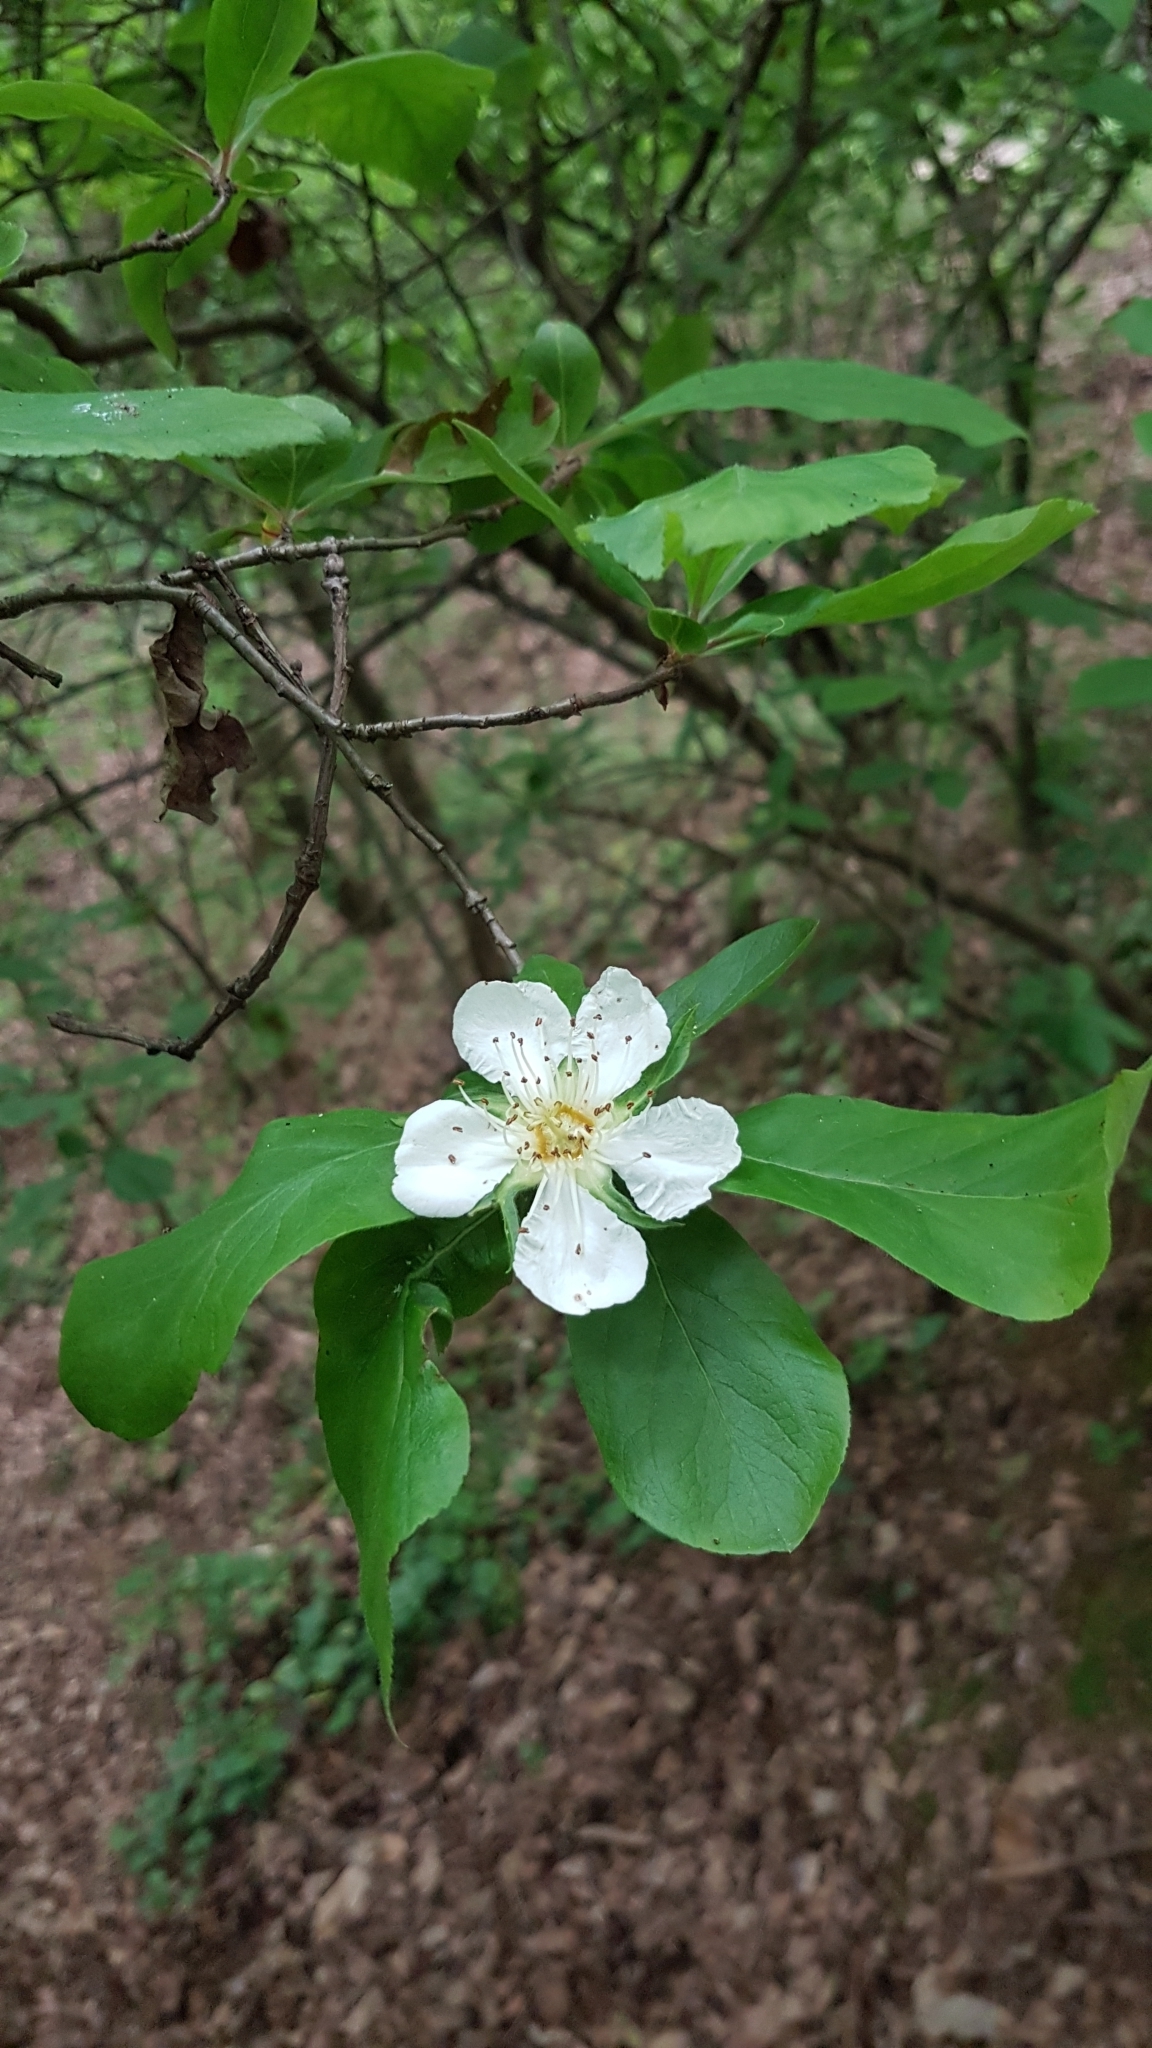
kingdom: Plantae
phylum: Tracheophyta
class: Magnoliopsida
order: Rosales
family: Rosaceae
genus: Mespilus
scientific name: Mespilus germanica
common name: Medlar
